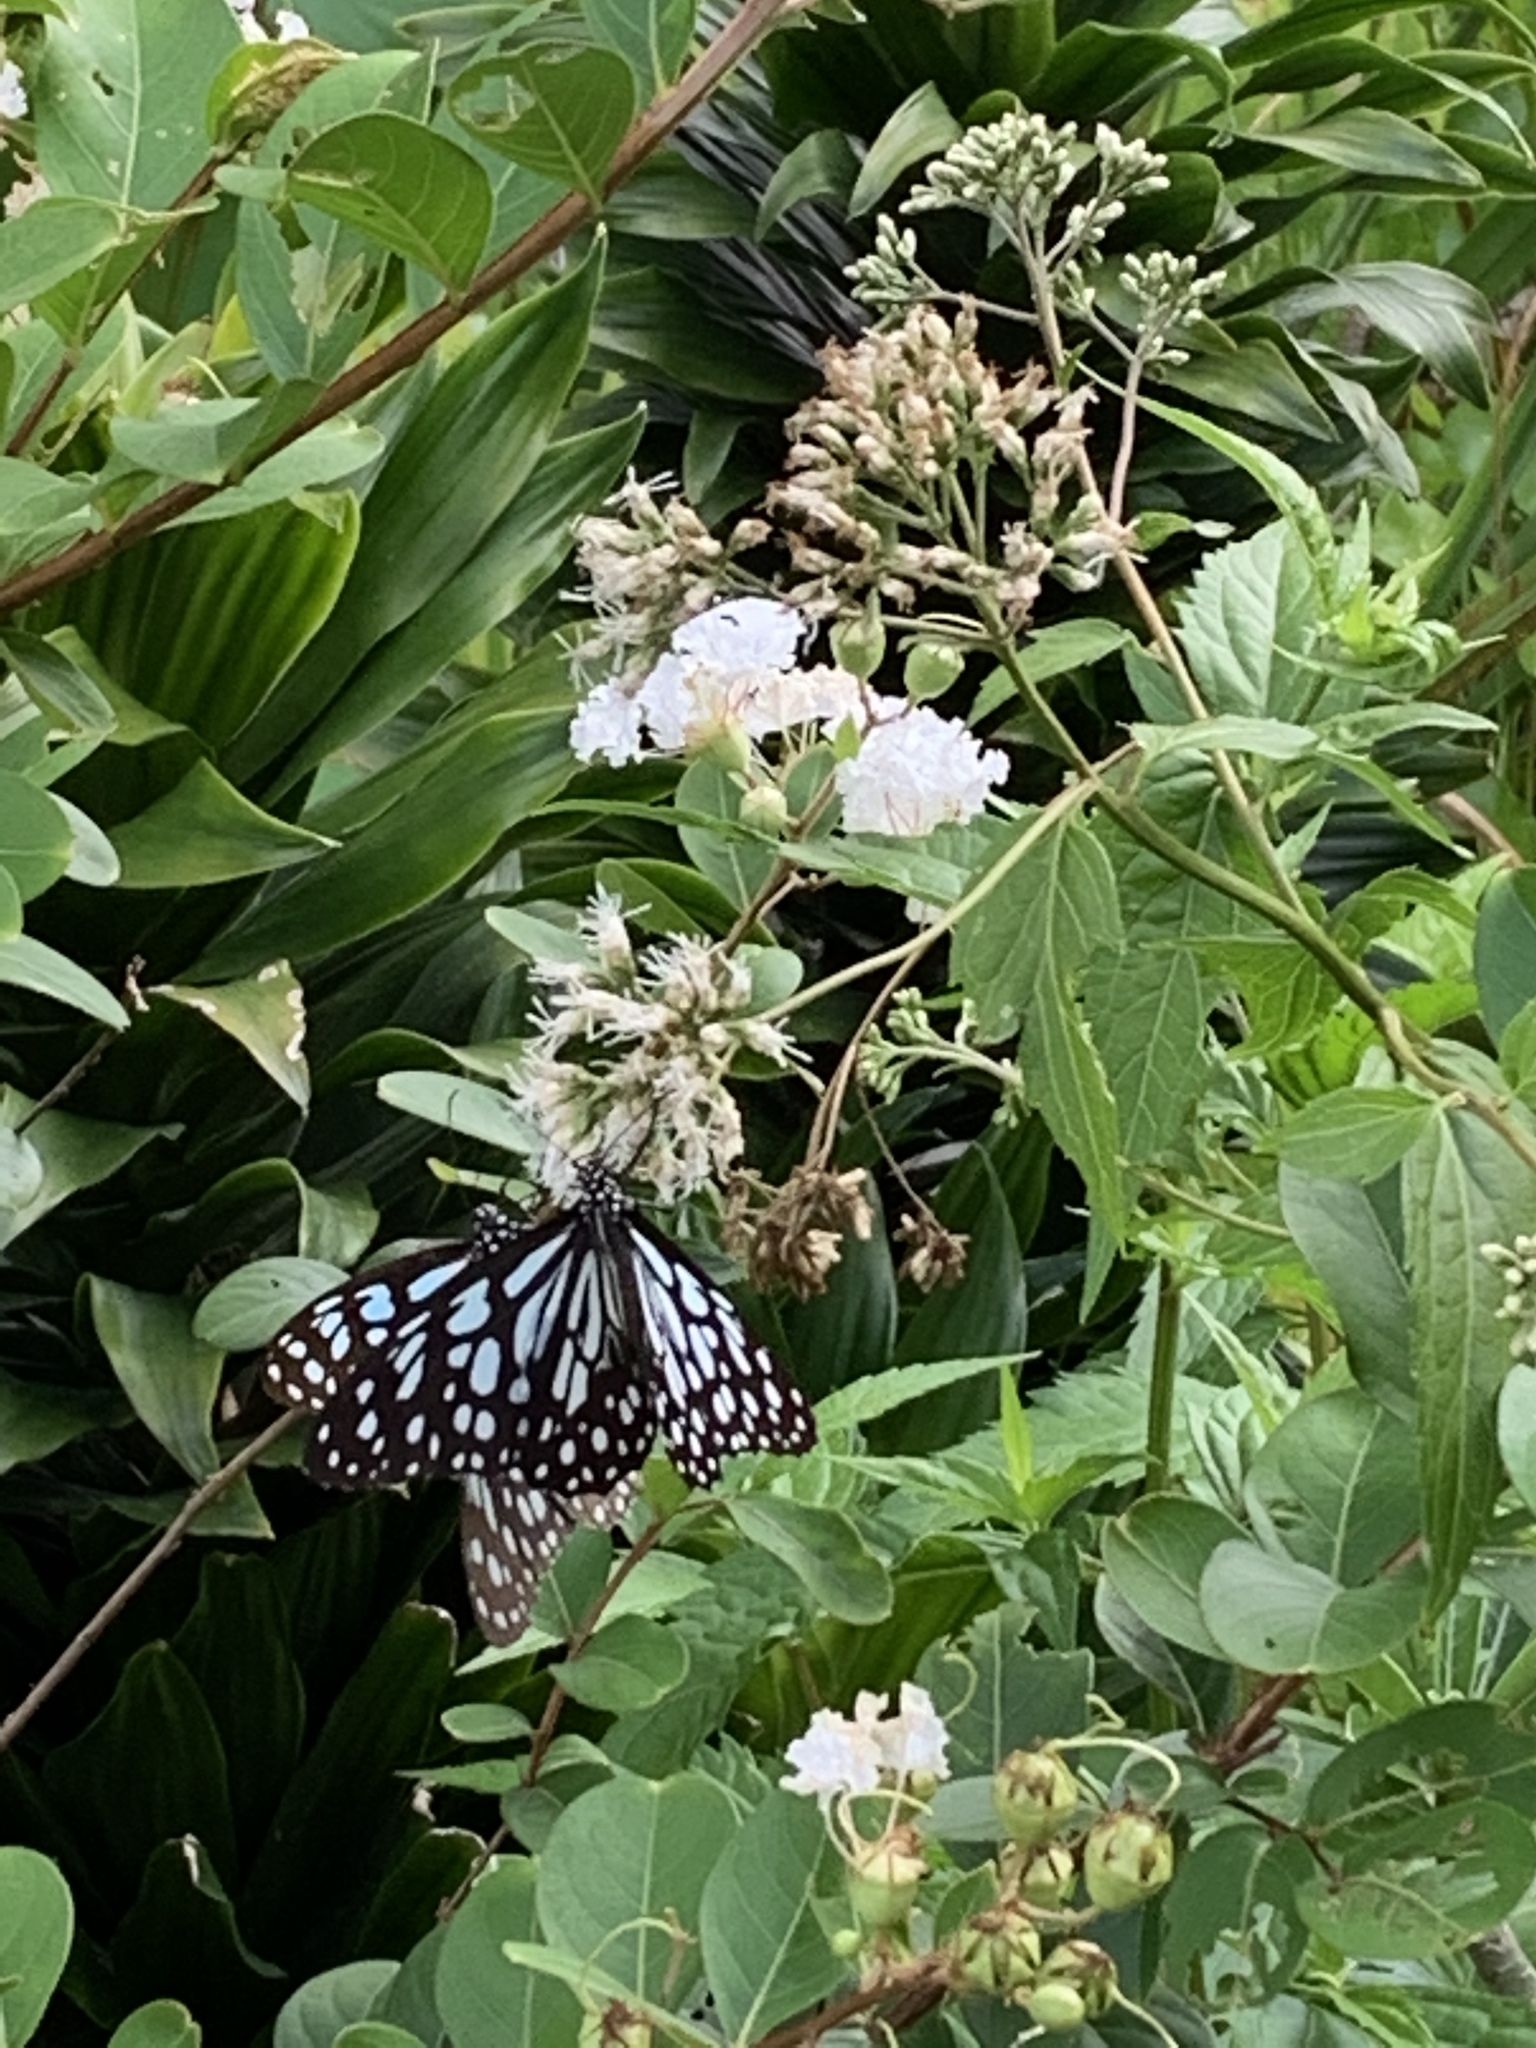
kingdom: Animalia
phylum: Arthropoda
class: Insecta
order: Lepidoptera
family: Nymphalidae
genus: Tirumala
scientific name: Tirumala limniace
